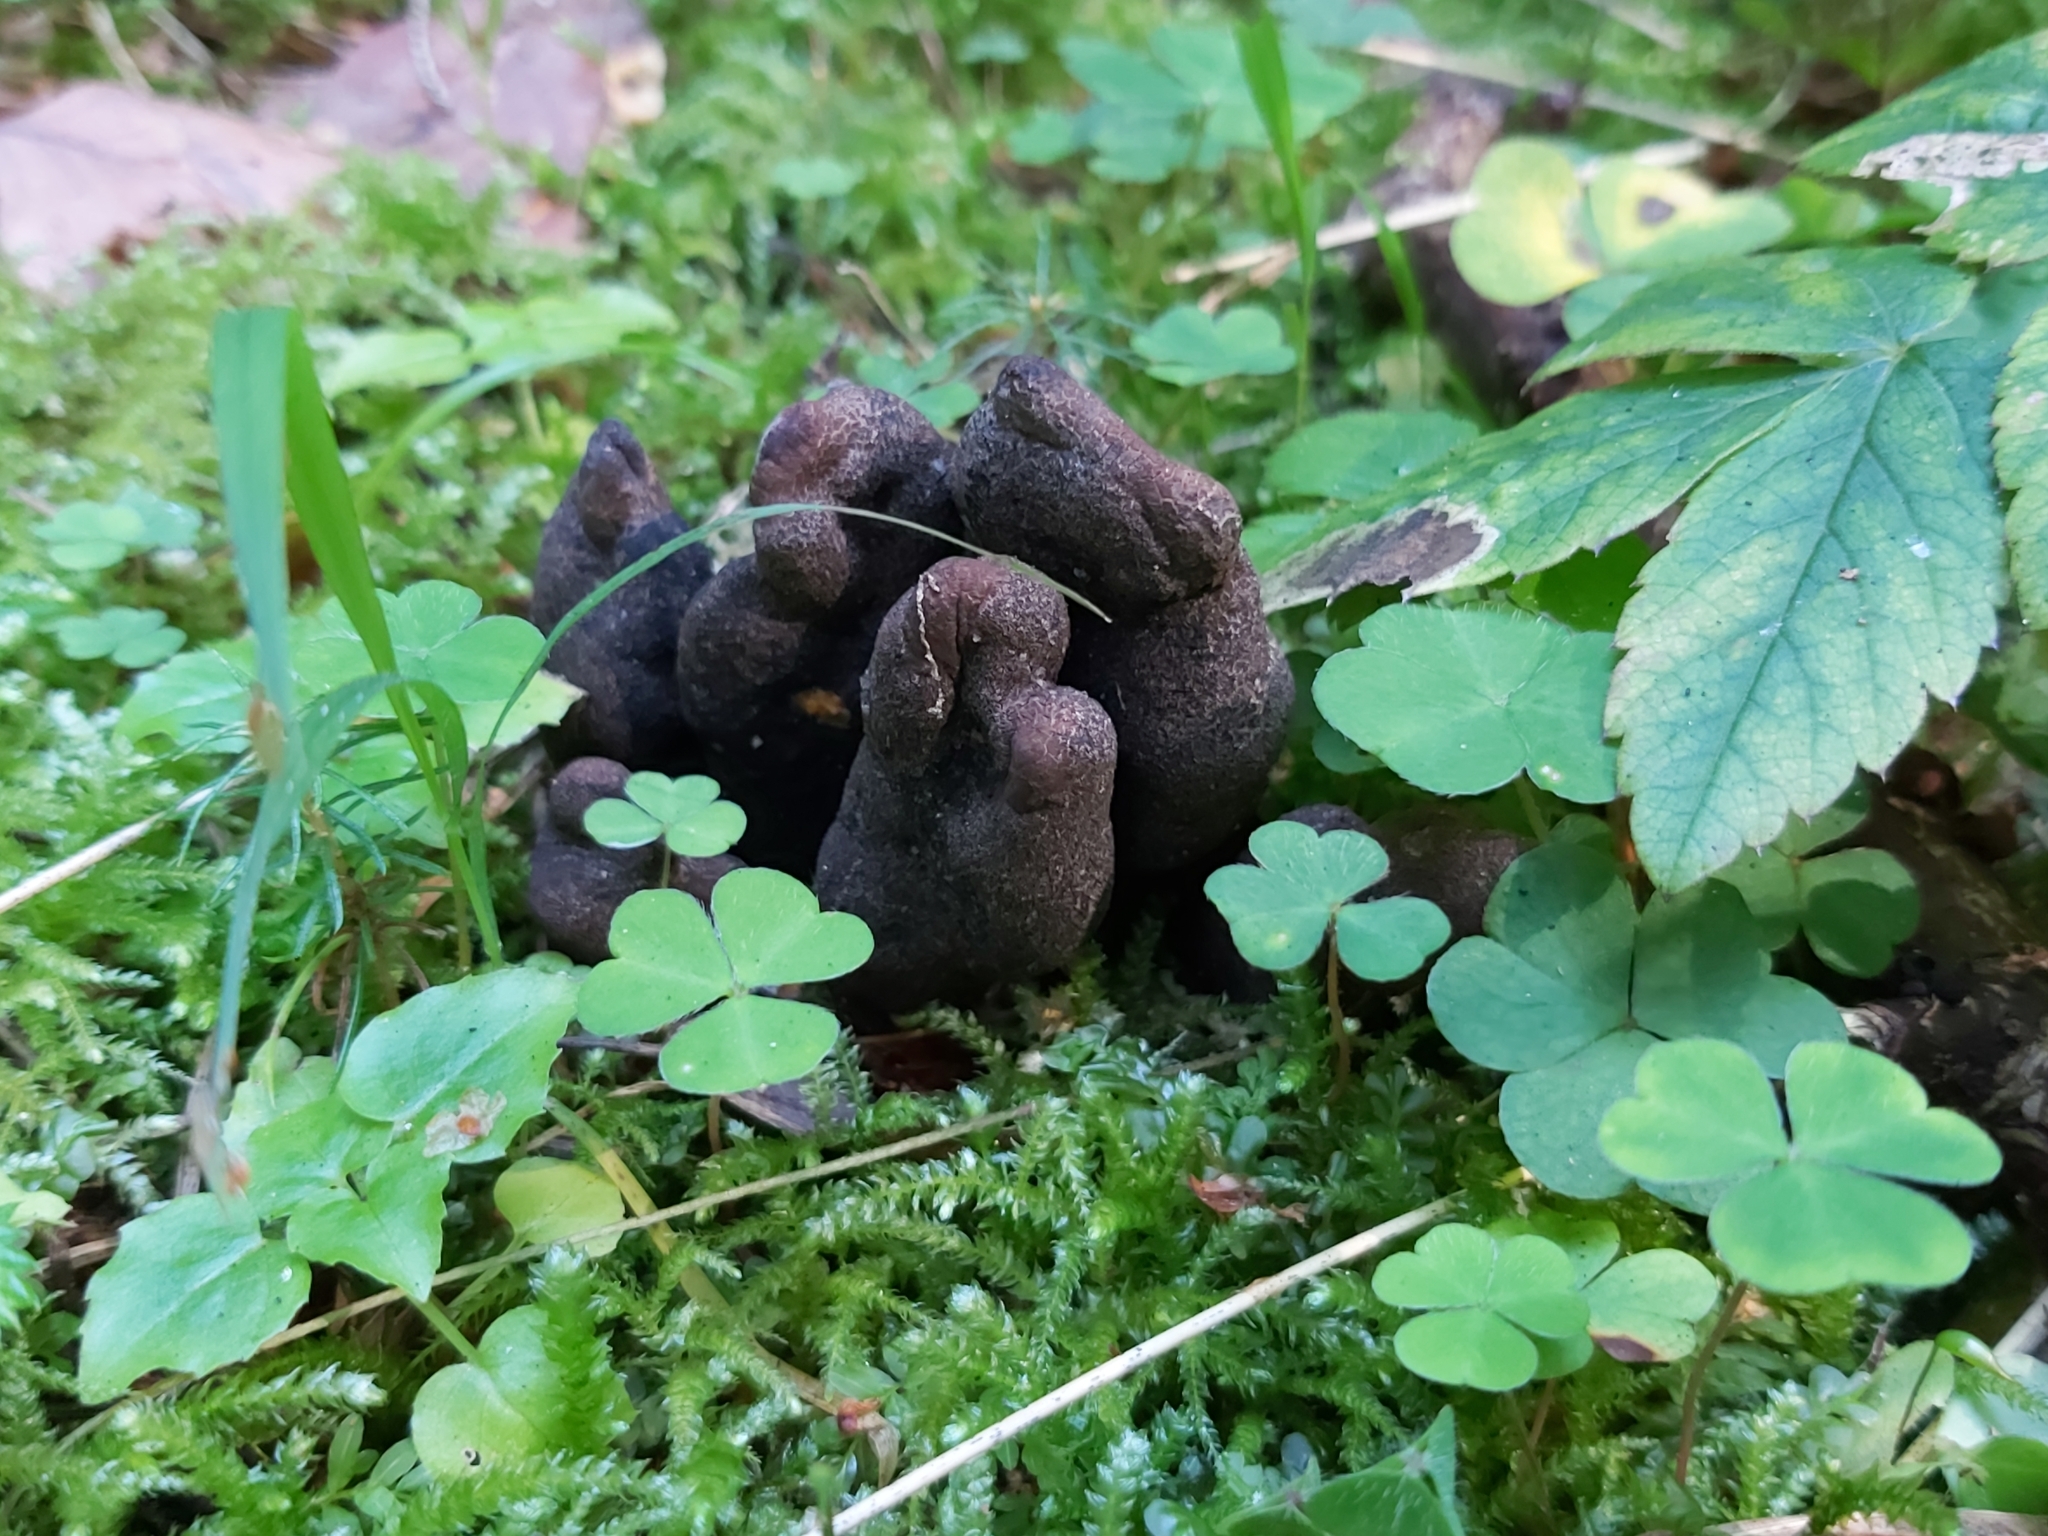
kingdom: Fungi
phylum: Ascomycota
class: Sordariomycetes
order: Xylariales
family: Xylariaceae
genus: Xylaria
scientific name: Xylaria polymorpha
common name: Dead man's fingers
